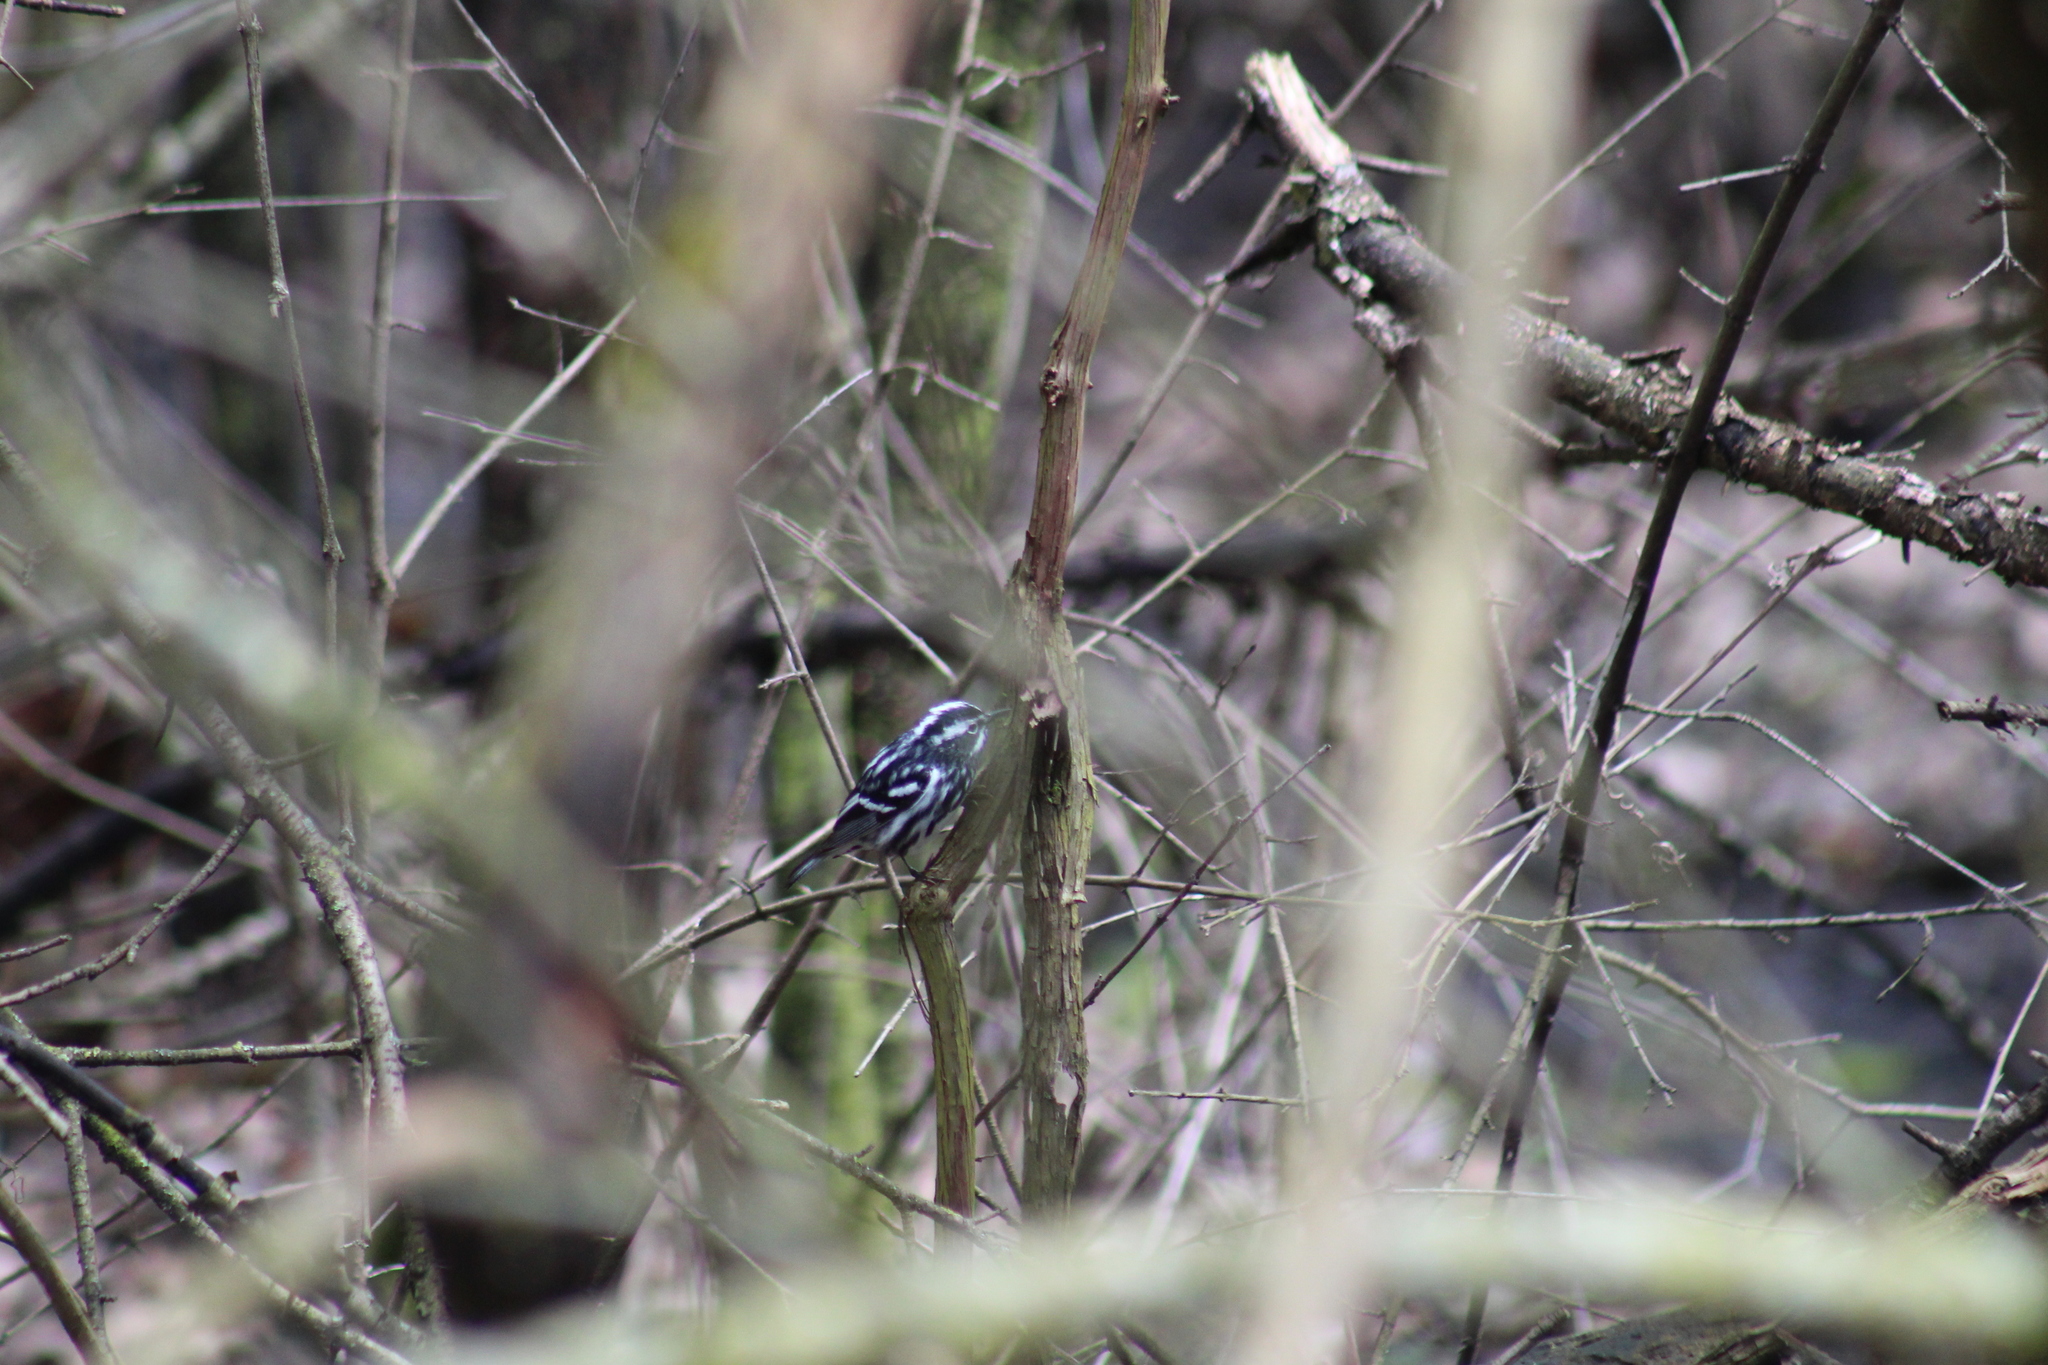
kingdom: Animalia
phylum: Chordata
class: Aves
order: Passeriformes
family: Parulidae
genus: Mniotilta
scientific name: Mniotilta varia
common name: Black-and-white warbler
